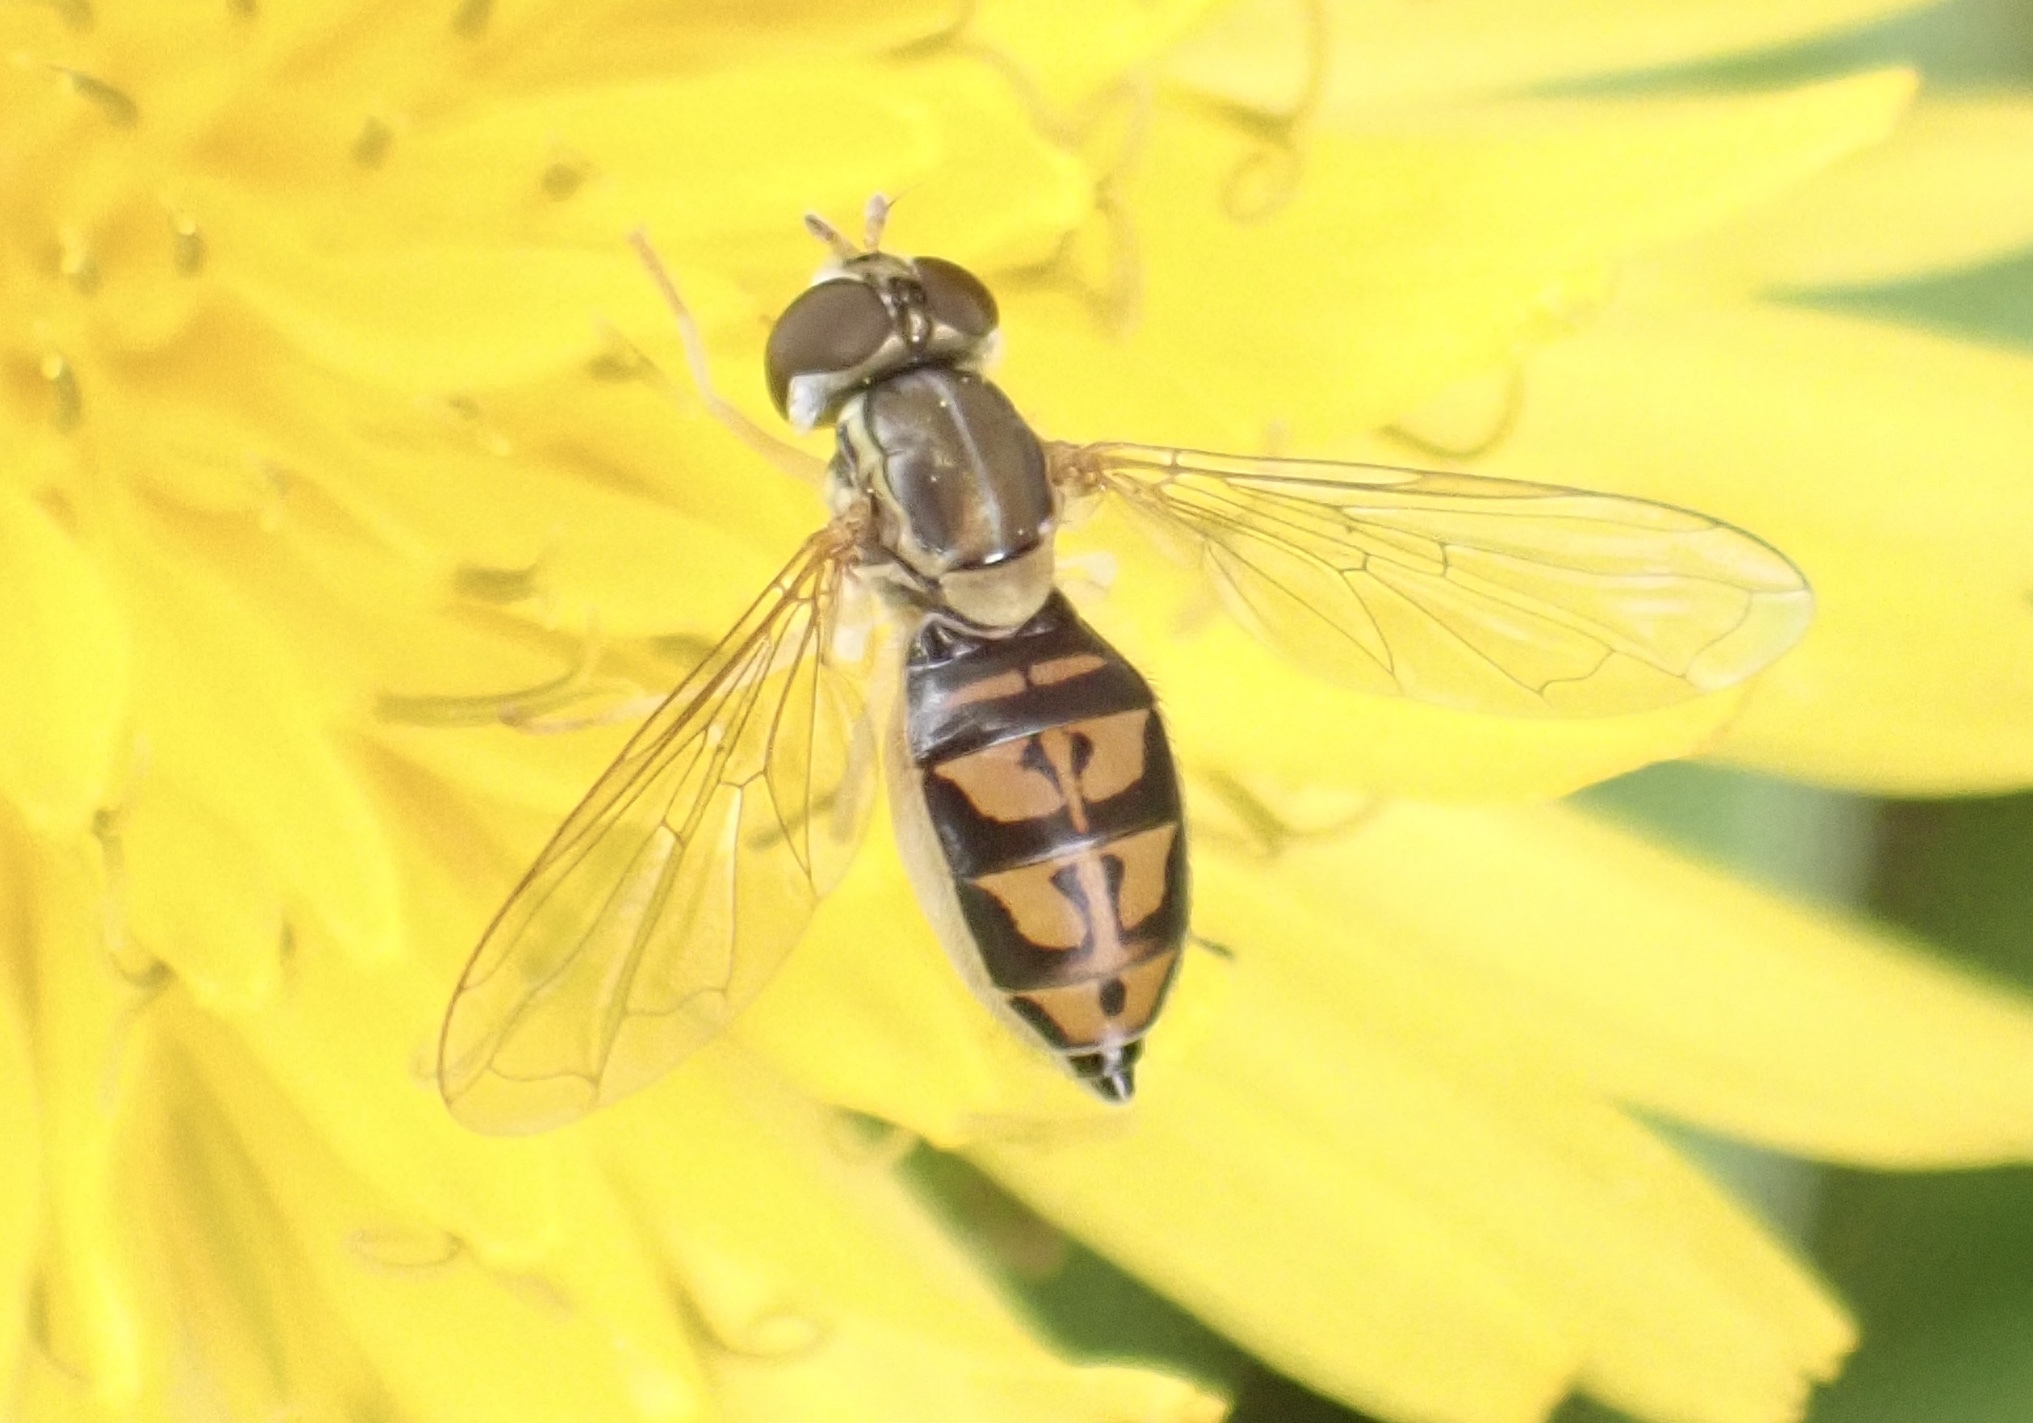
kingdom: Animalia
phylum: Arthropoda
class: Insecta
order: Diptera
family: Syrphidae
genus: Toxomerus
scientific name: Toxomerus marginatus
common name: Syrphid fly
